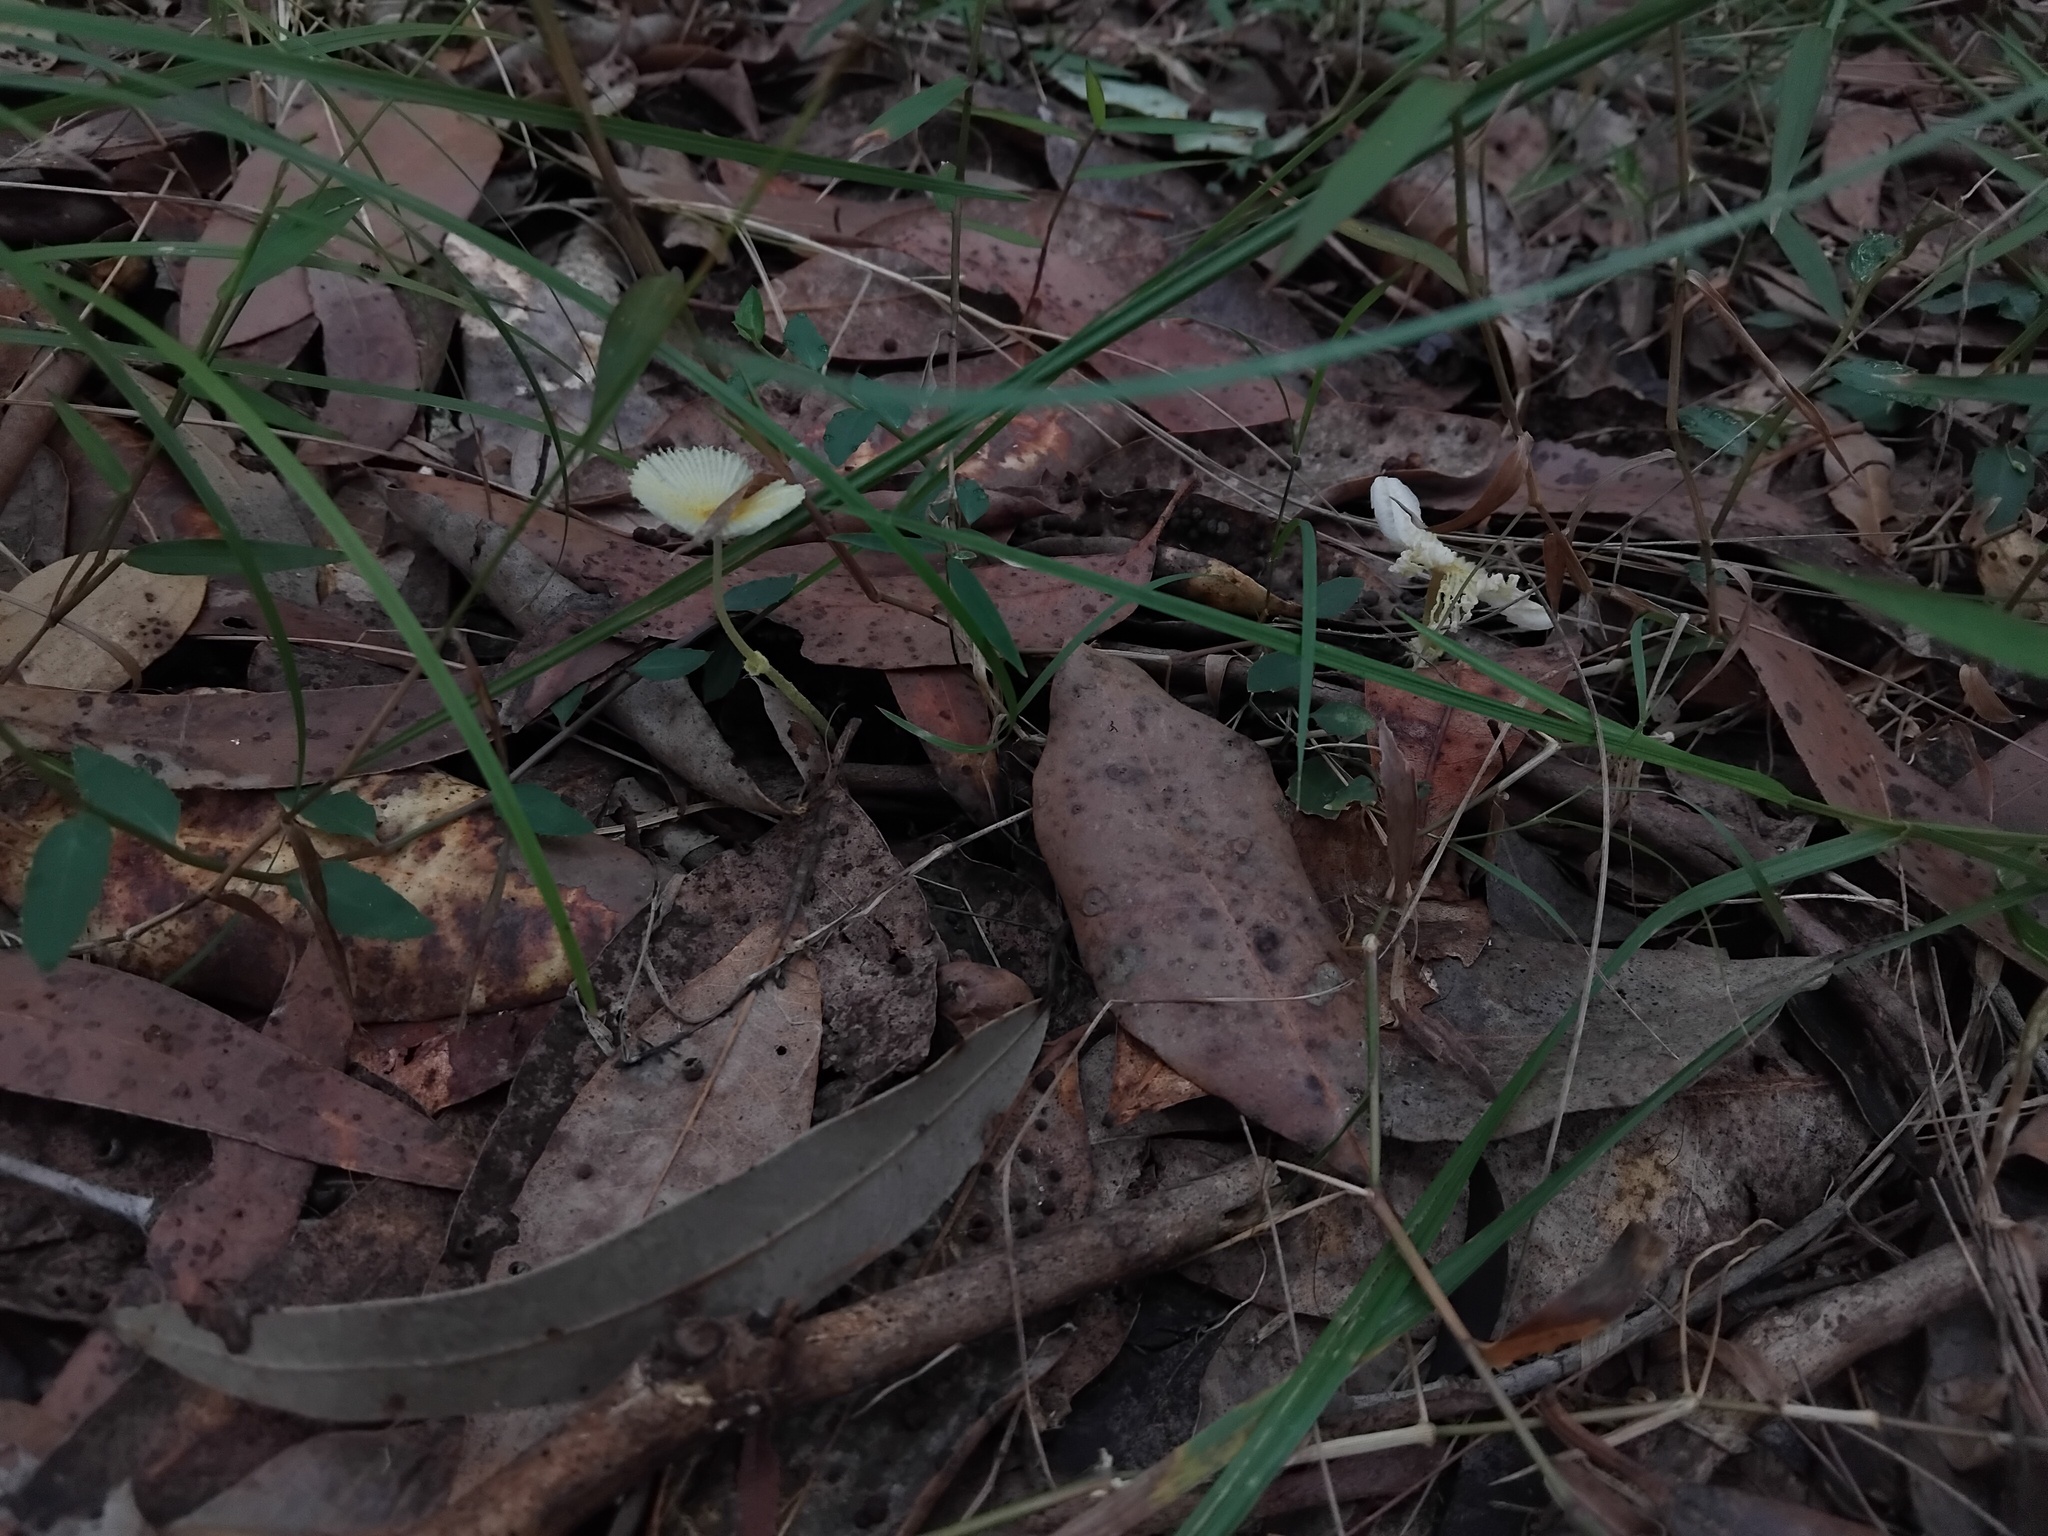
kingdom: Fungi
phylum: Basidiomycota
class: Agaricomycetes
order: Agaricales
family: Agaricaceae
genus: Leucocoprinus
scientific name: Leucocoprinus fragilissimus
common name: Fragile dapperling
